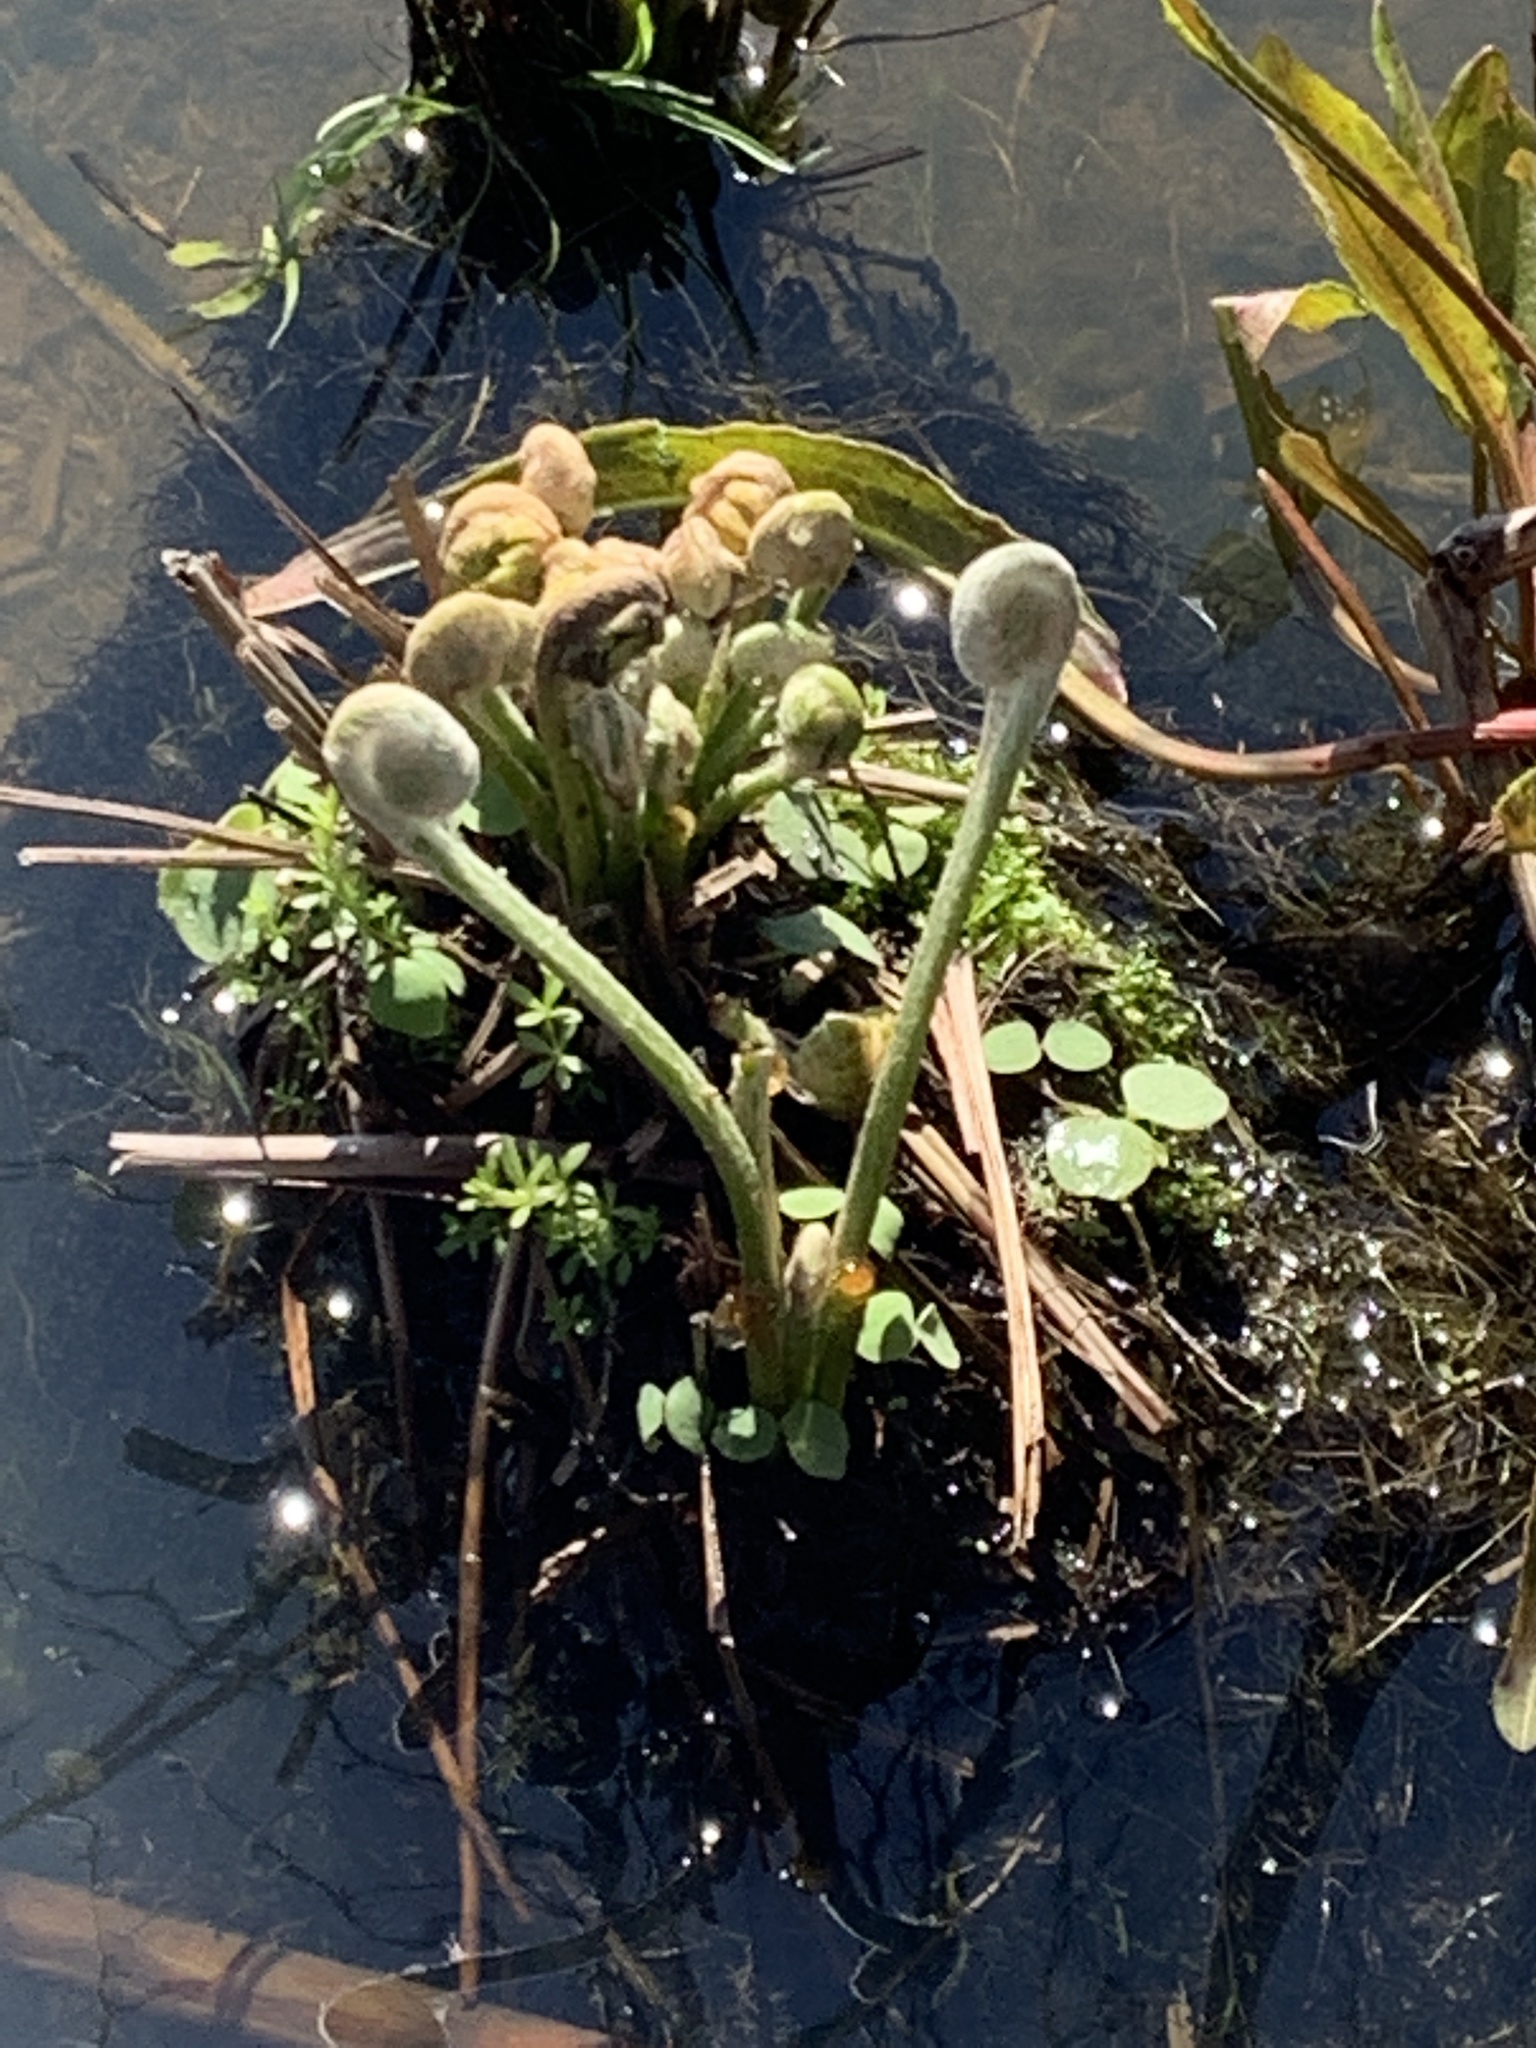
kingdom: Plantae
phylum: Tracheophyta
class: Polypodiopsida
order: Osmundales
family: Osmundaceae
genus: Osmundastrum
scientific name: Osmundastrum cinnamomeum
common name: Cinnamon fern
